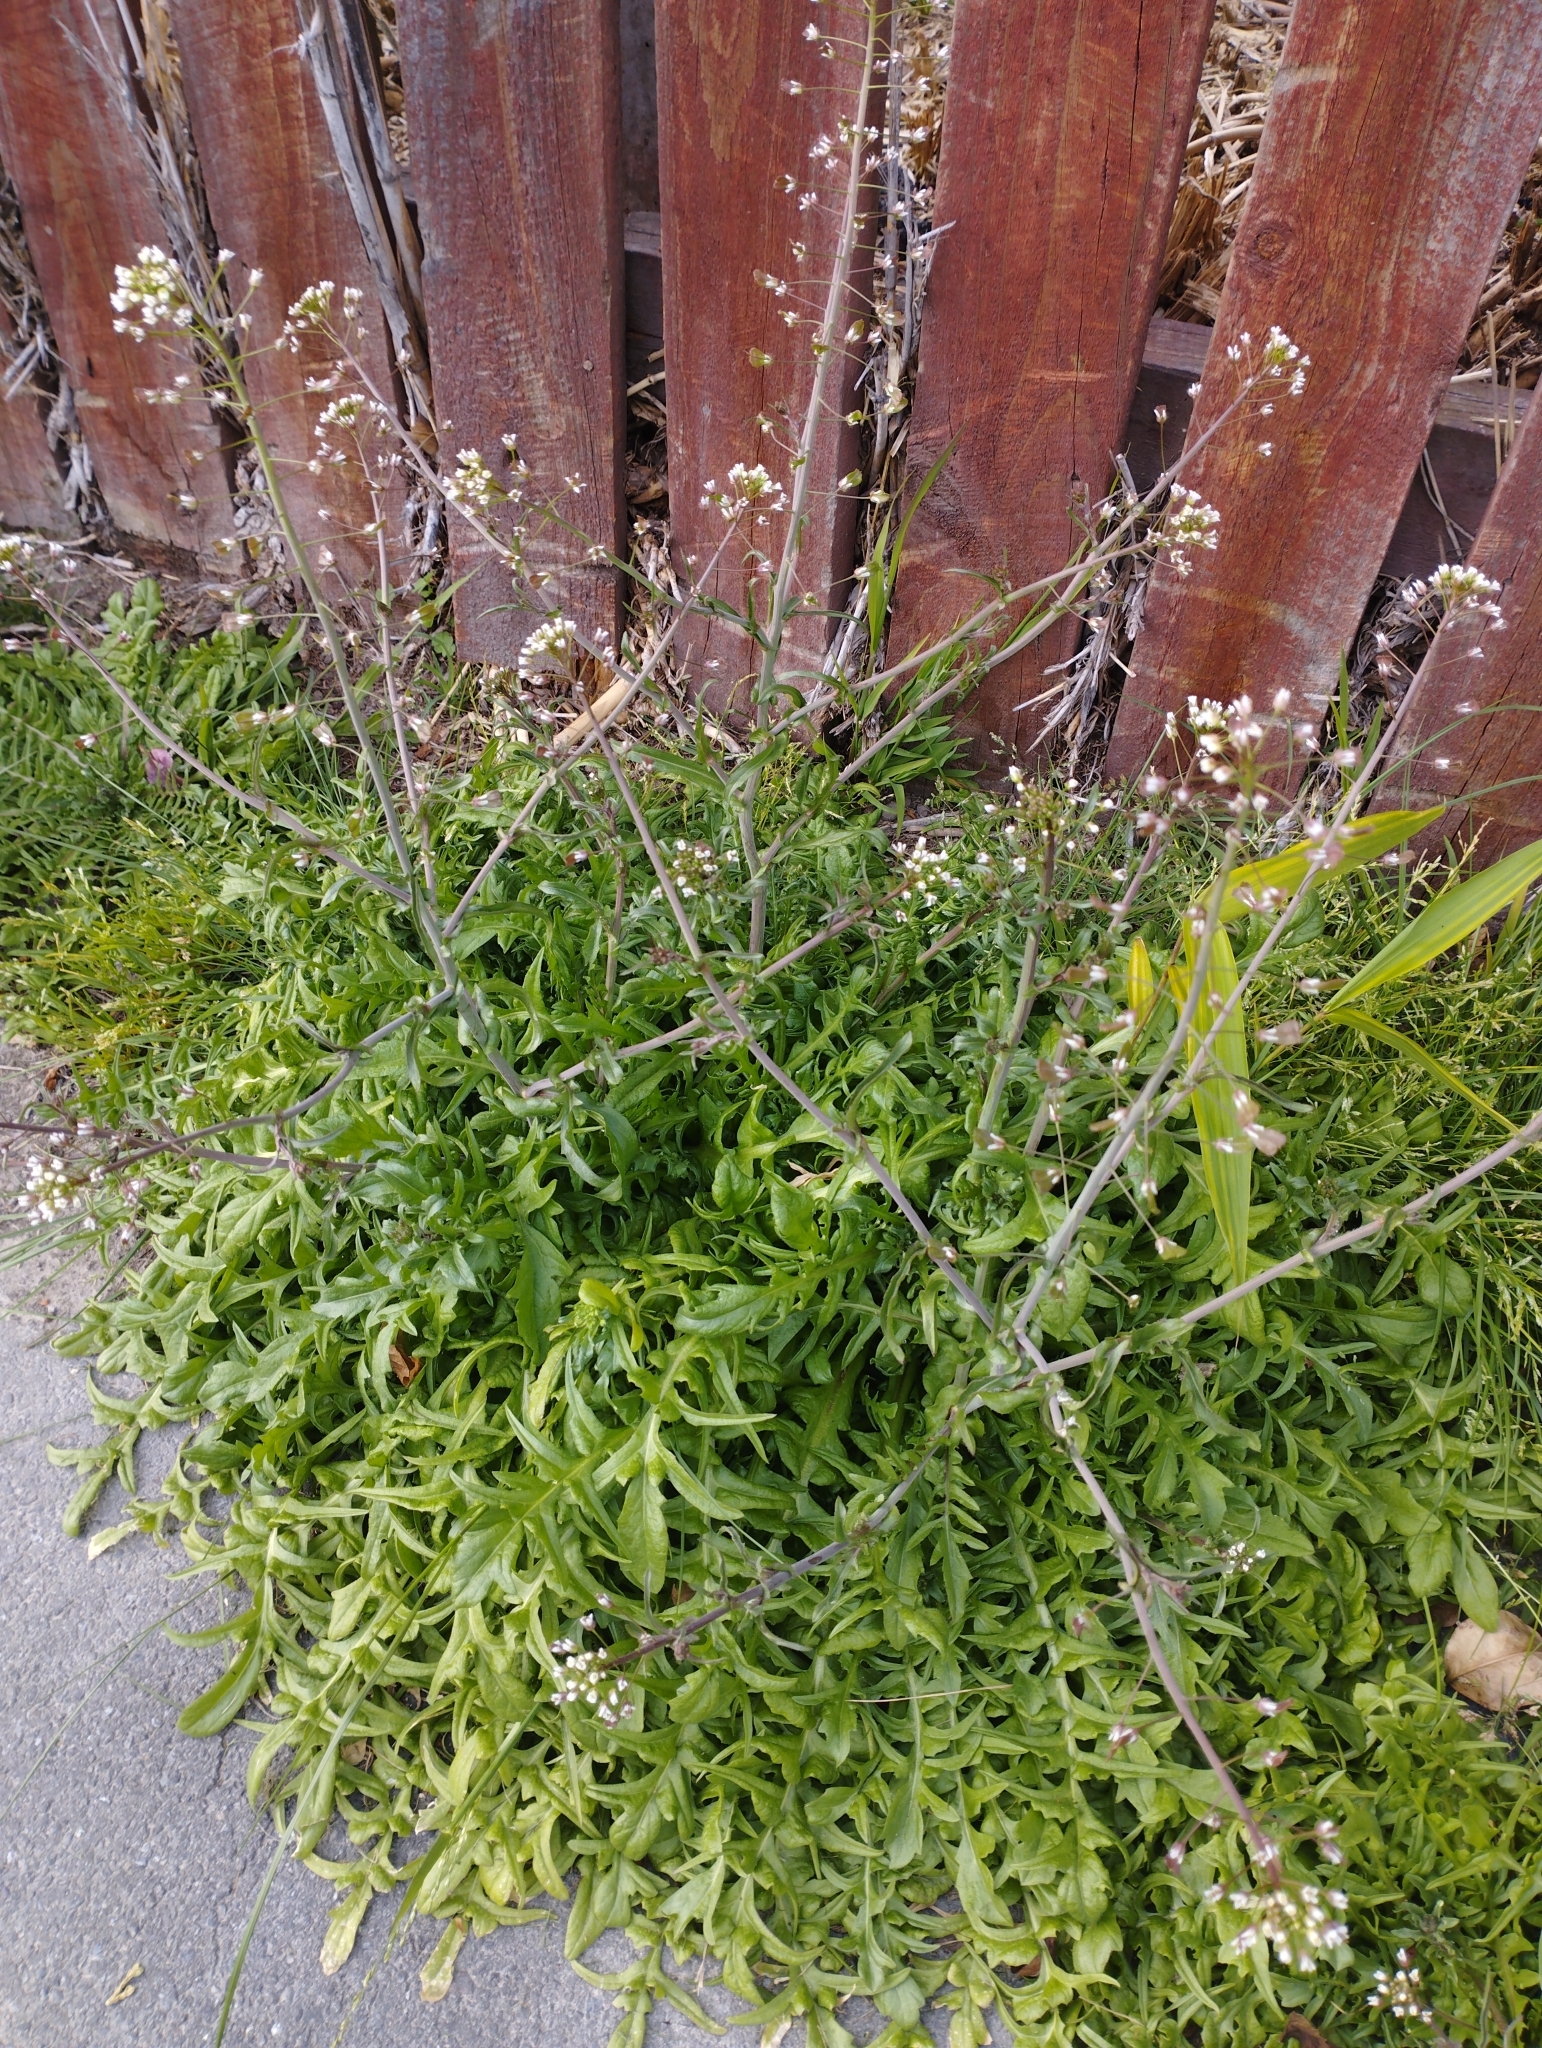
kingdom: Plantae
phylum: Tracheophyta
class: Magnoliopsida
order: Brassicales
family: Brassicaceae
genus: Capsella
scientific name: Capsella bursa-pastoris
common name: Shepherd's purse
